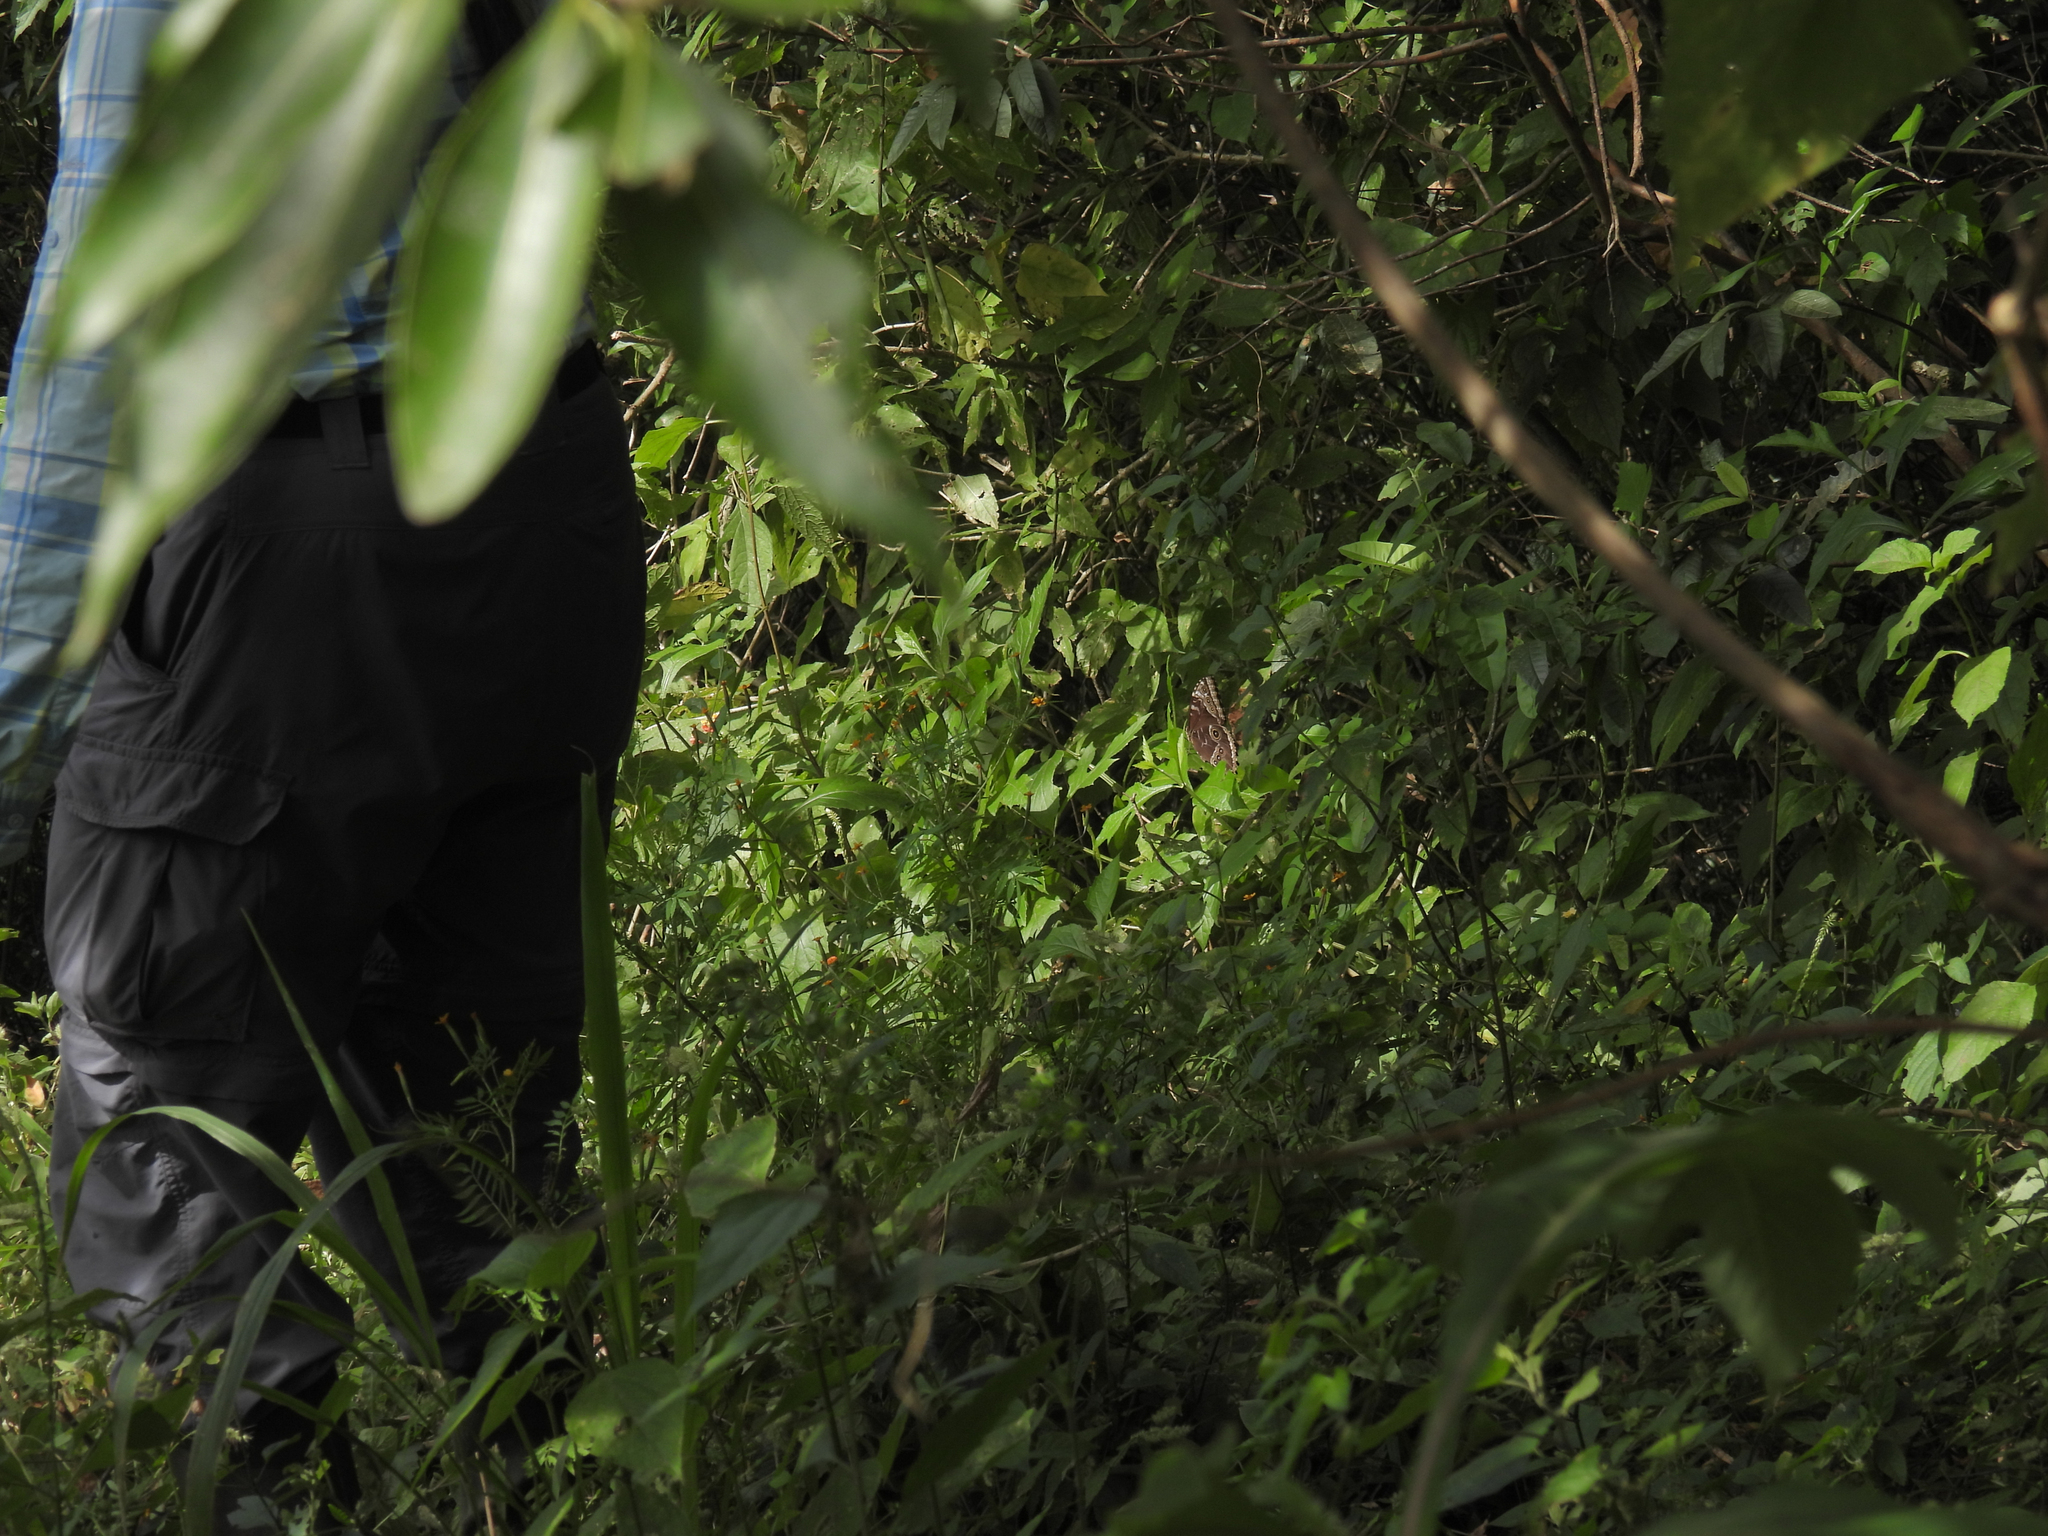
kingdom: Animalia
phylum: Arthropoda
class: Insecta
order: Lepidoptera
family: Nymphalidae
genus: Morpho
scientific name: Morpho helenor
